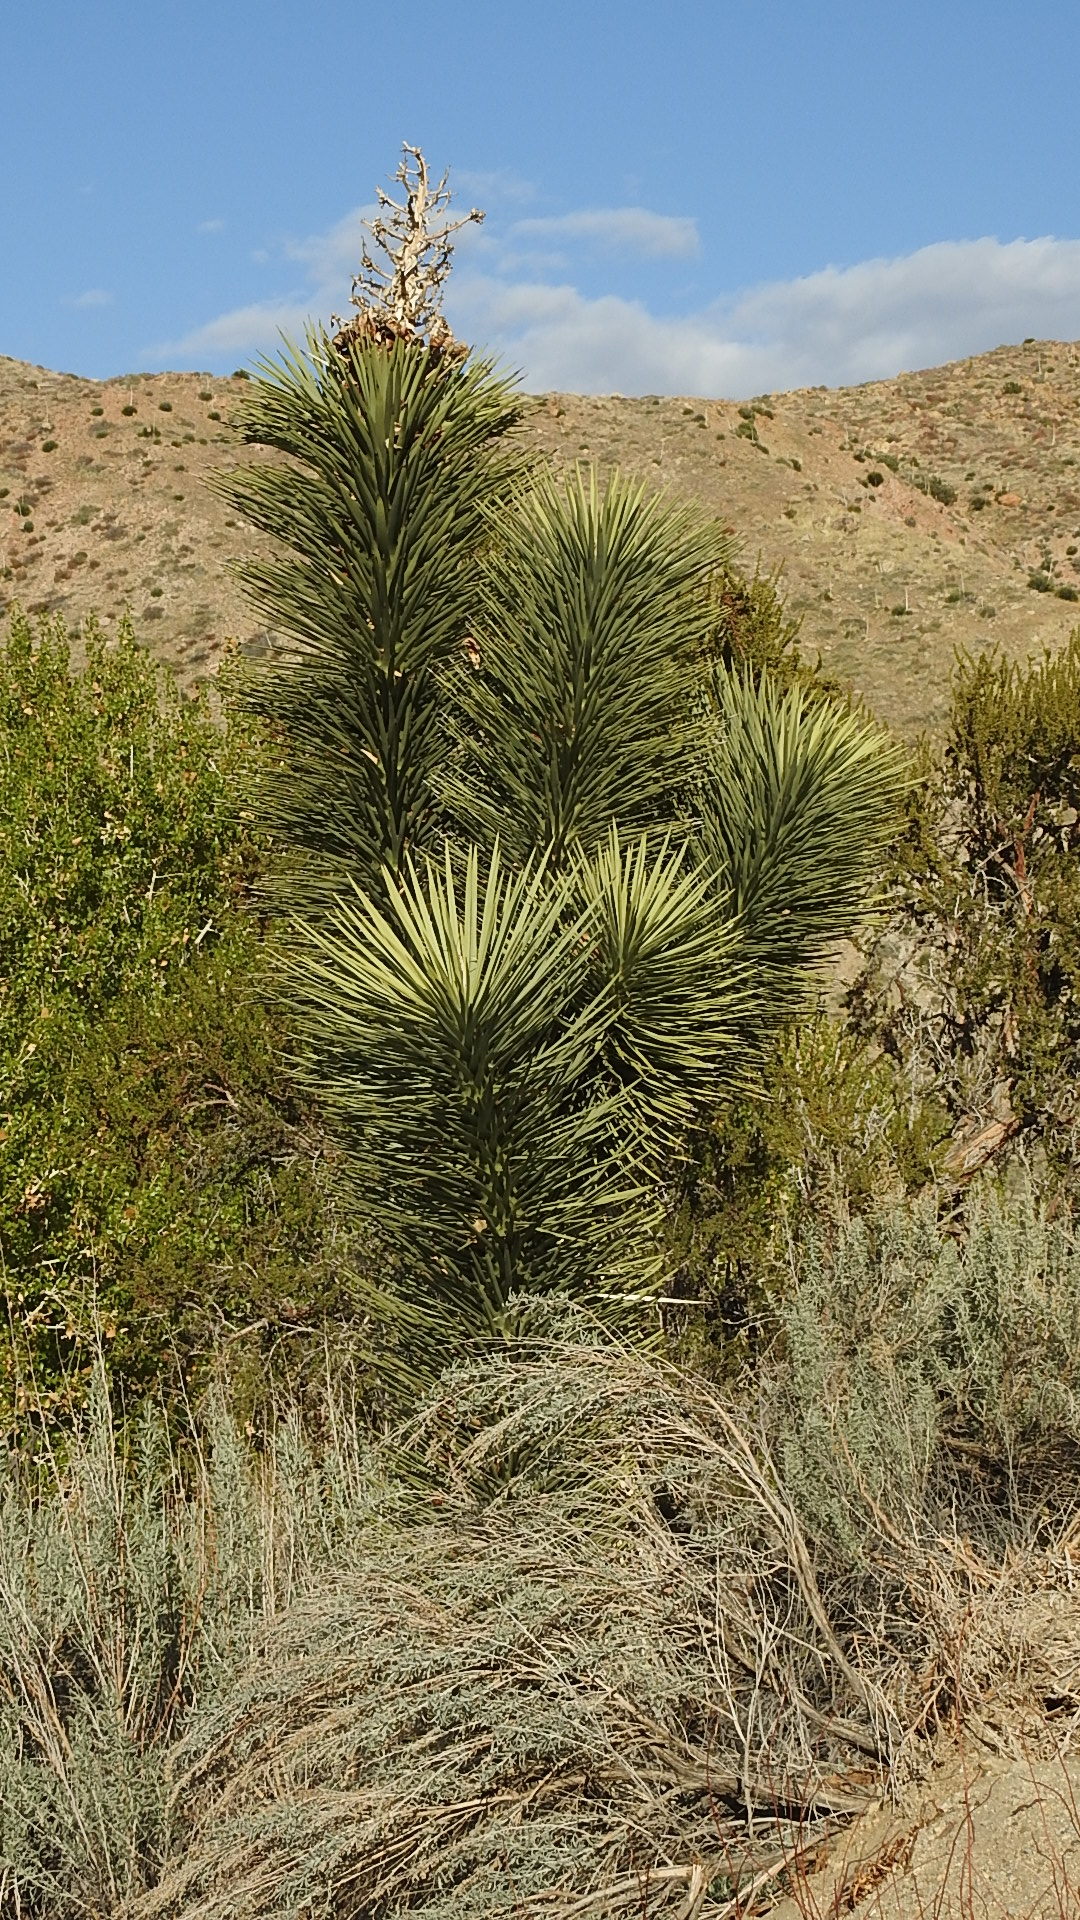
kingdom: Plantae
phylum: Tracheophyta
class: Liliopsida
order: Asparagales
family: Asparagaceae
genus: Yucca
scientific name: Yucca brevifolia
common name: Joshua tree
